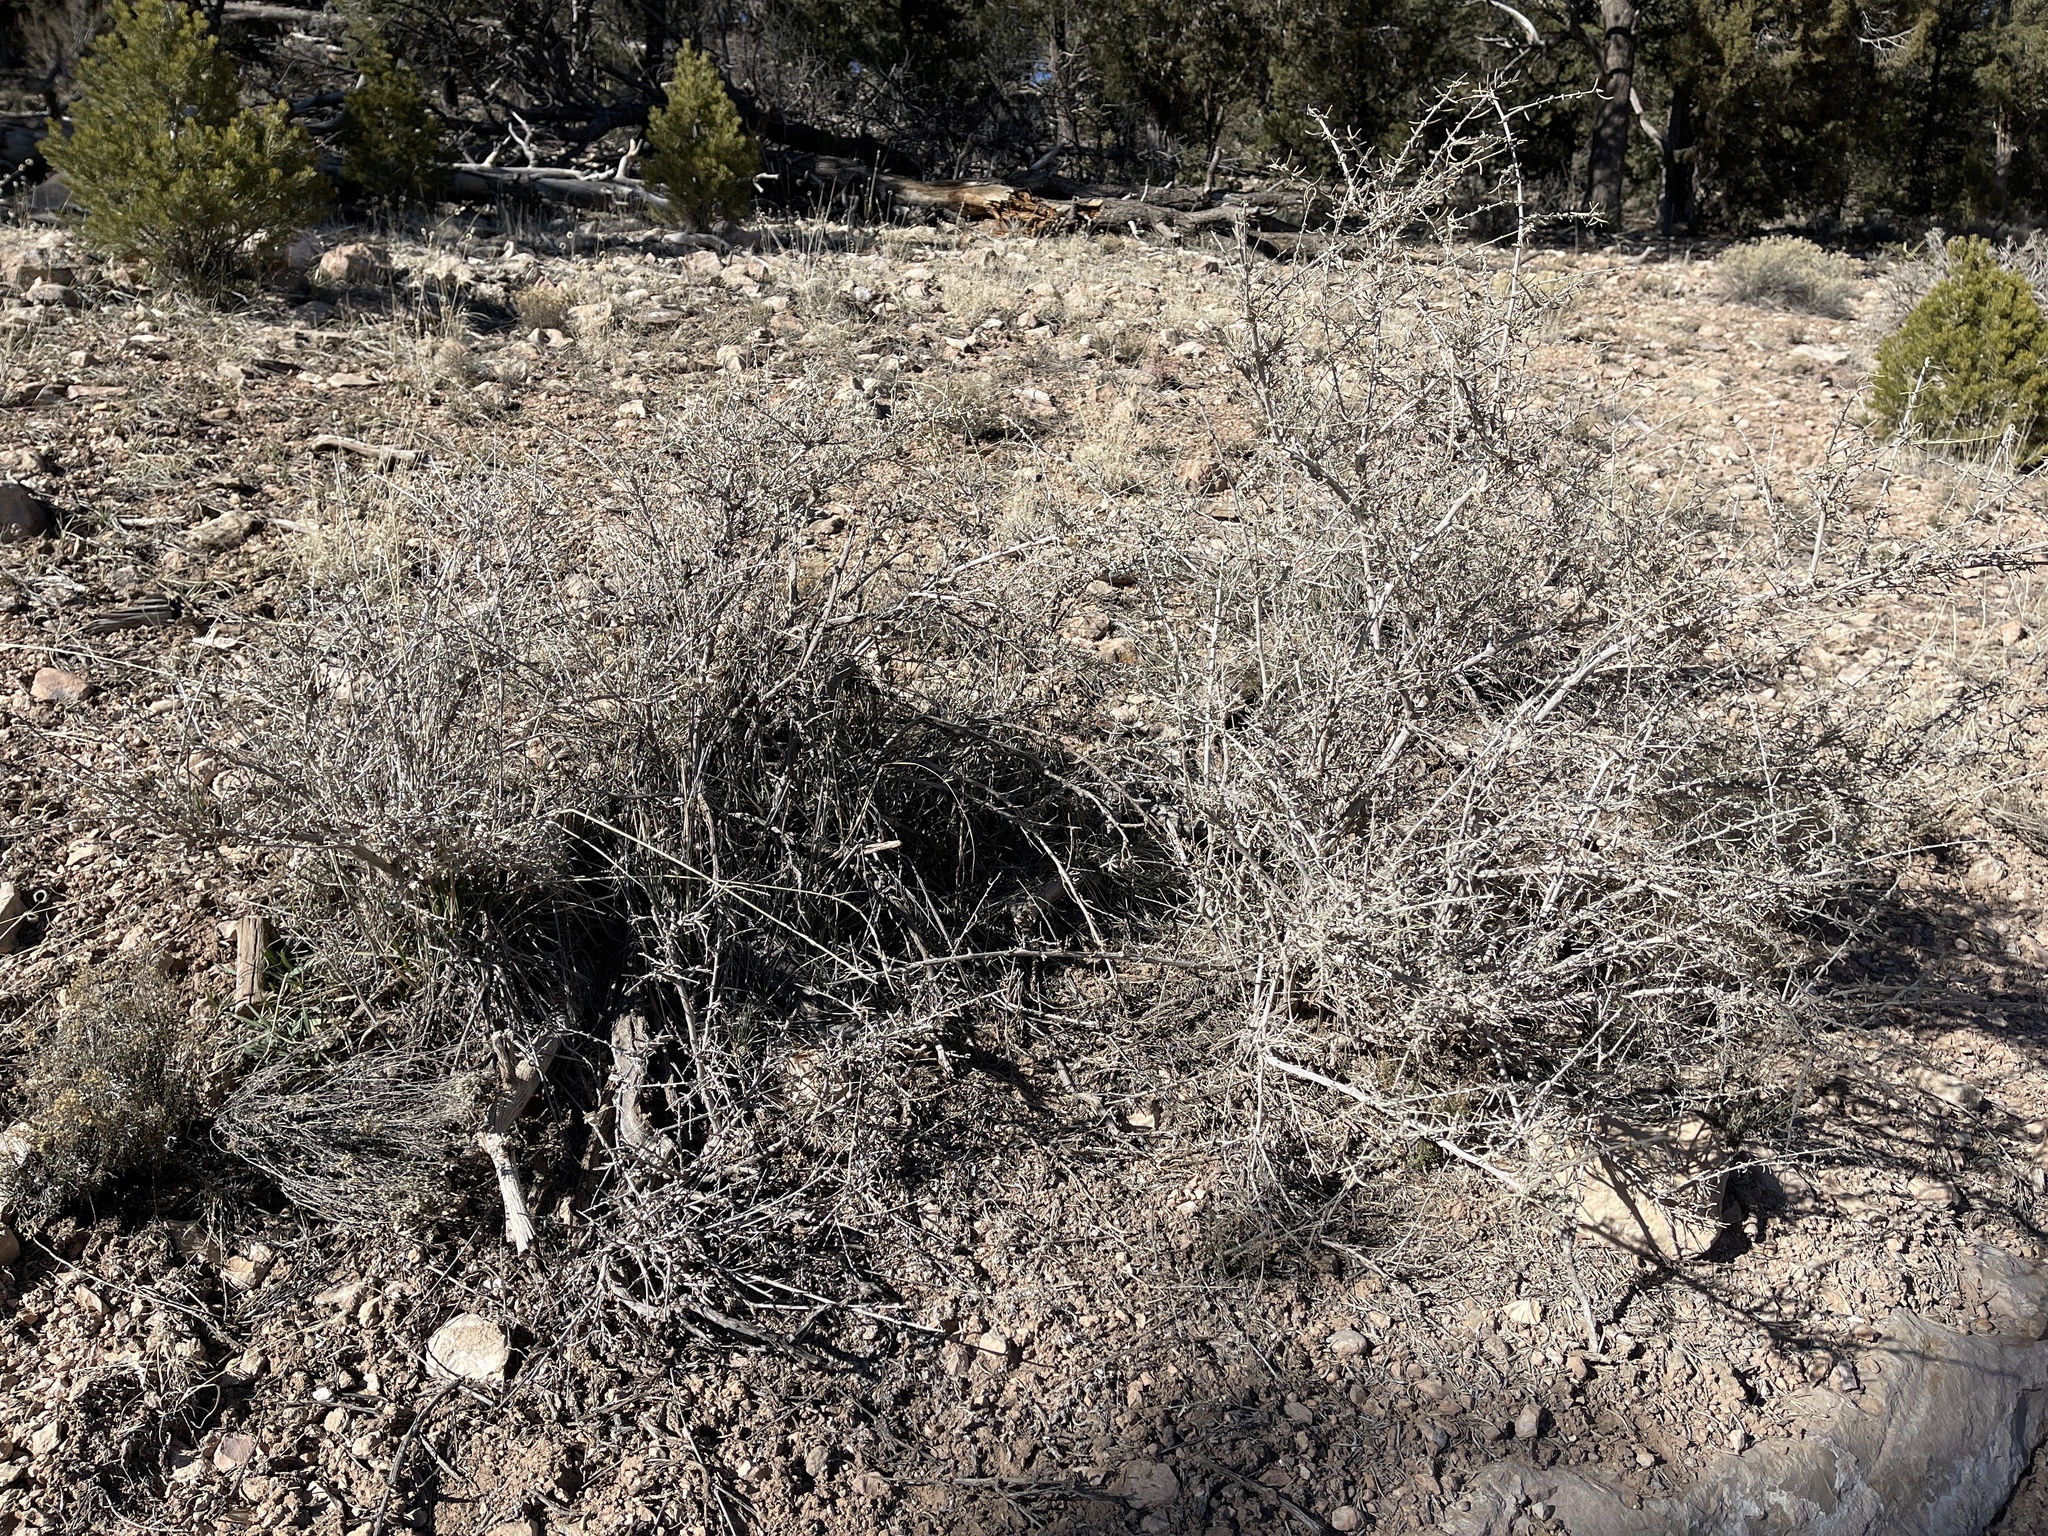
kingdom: Plantae
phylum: Tracheophyta
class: Magnoliopsida
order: Caryophyllales
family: Amaranthaceae
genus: Atriplex
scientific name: Atriplex canescens
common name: Four-wing saltbush
